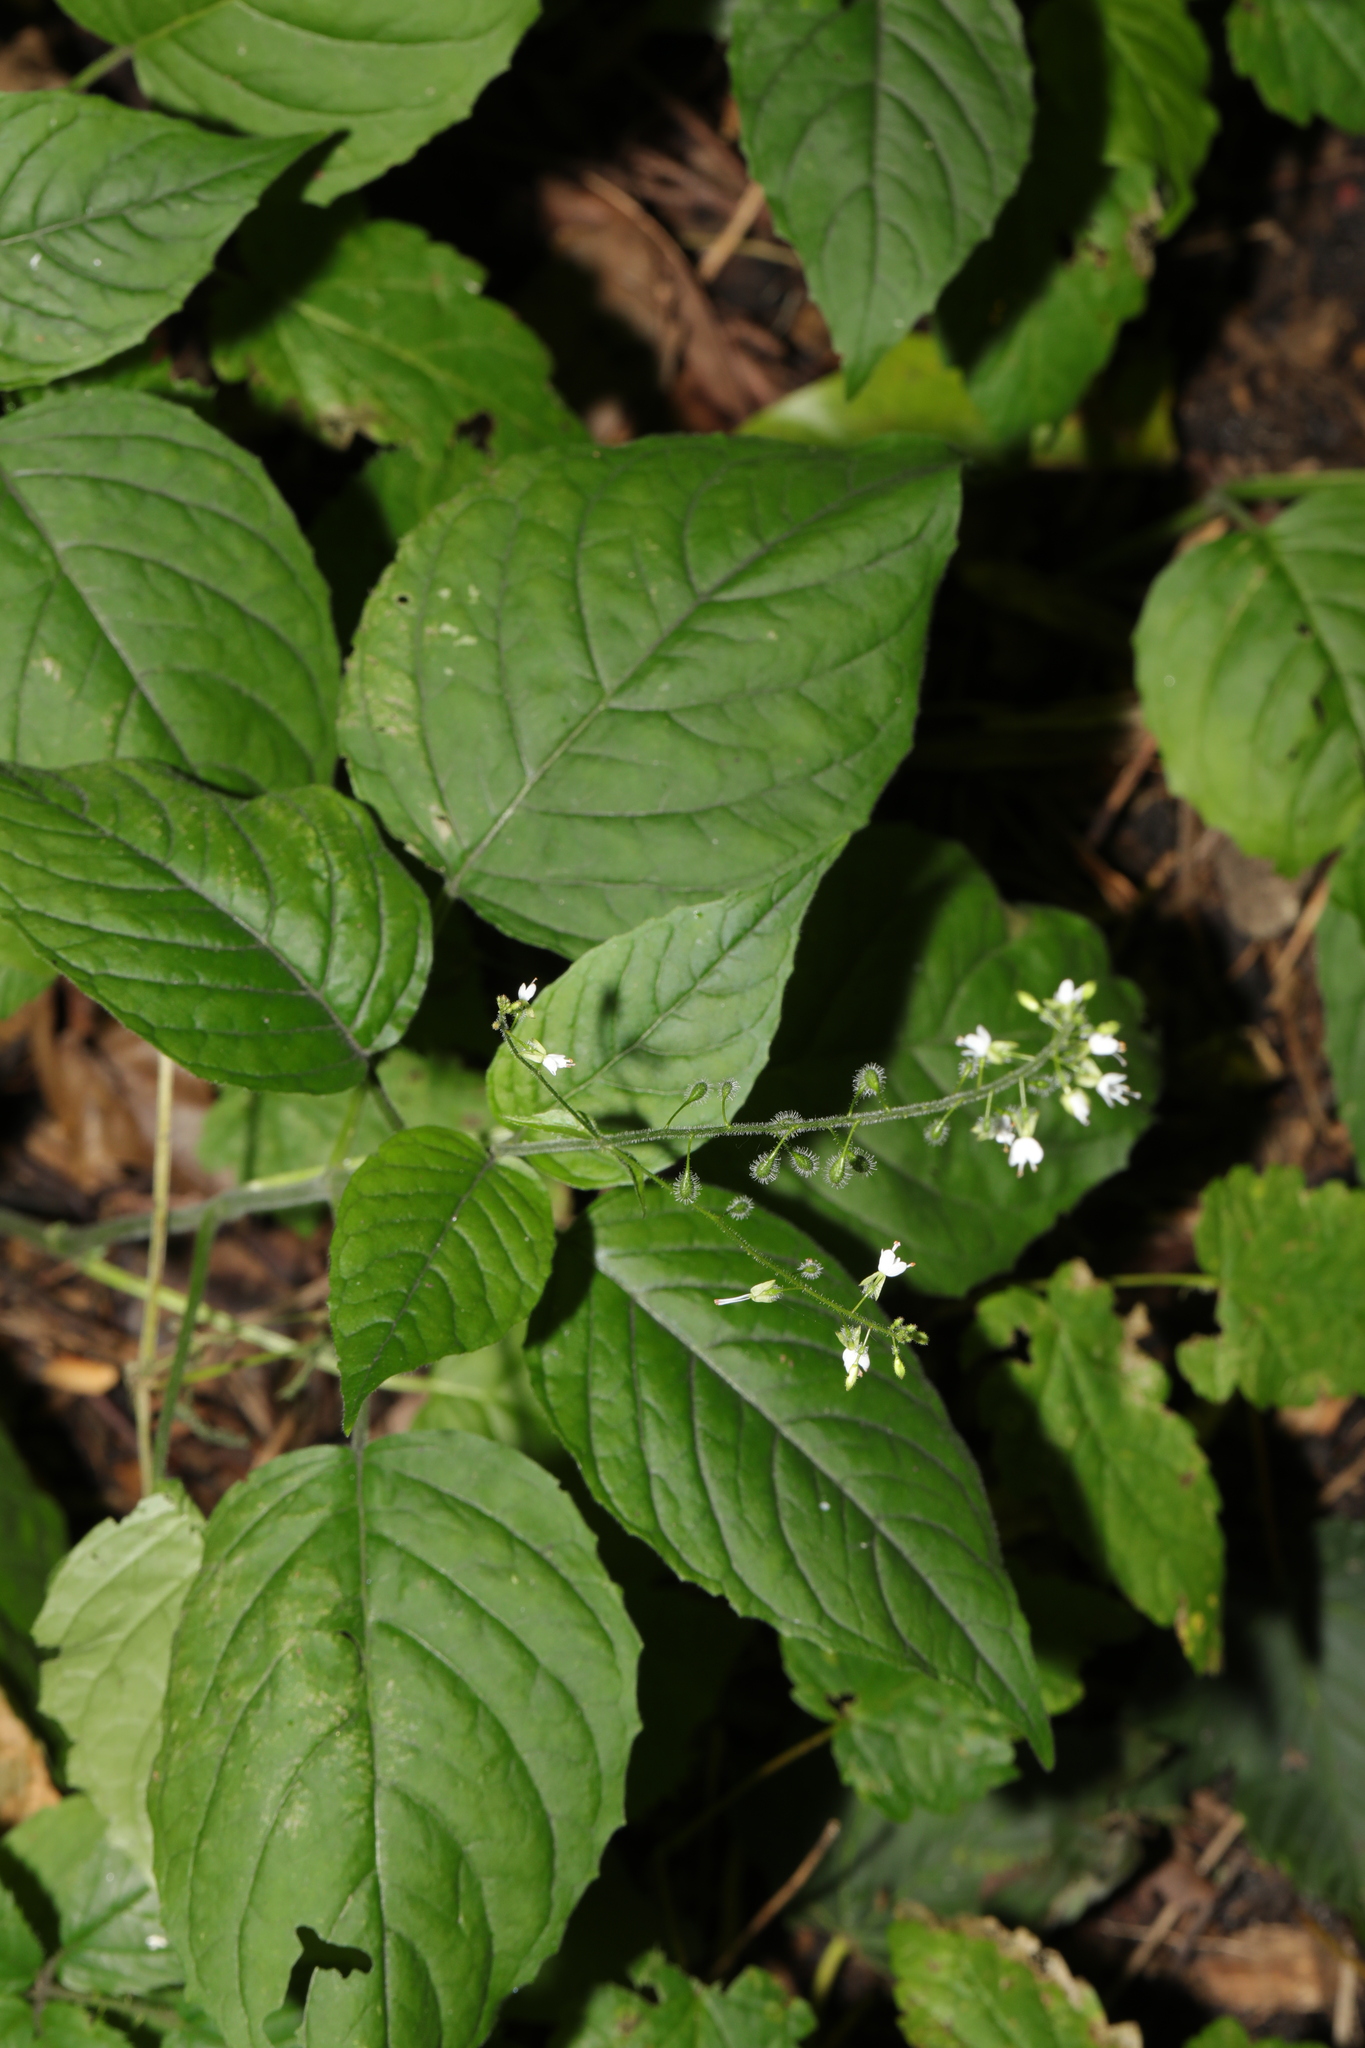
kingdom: Plantae
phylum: Tracheophyta
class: Magnoliopsida
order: Myrtales
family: Onagraceae
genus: Circaea
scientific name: Circaea lutetiana
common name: Enchanter's-nightshade
